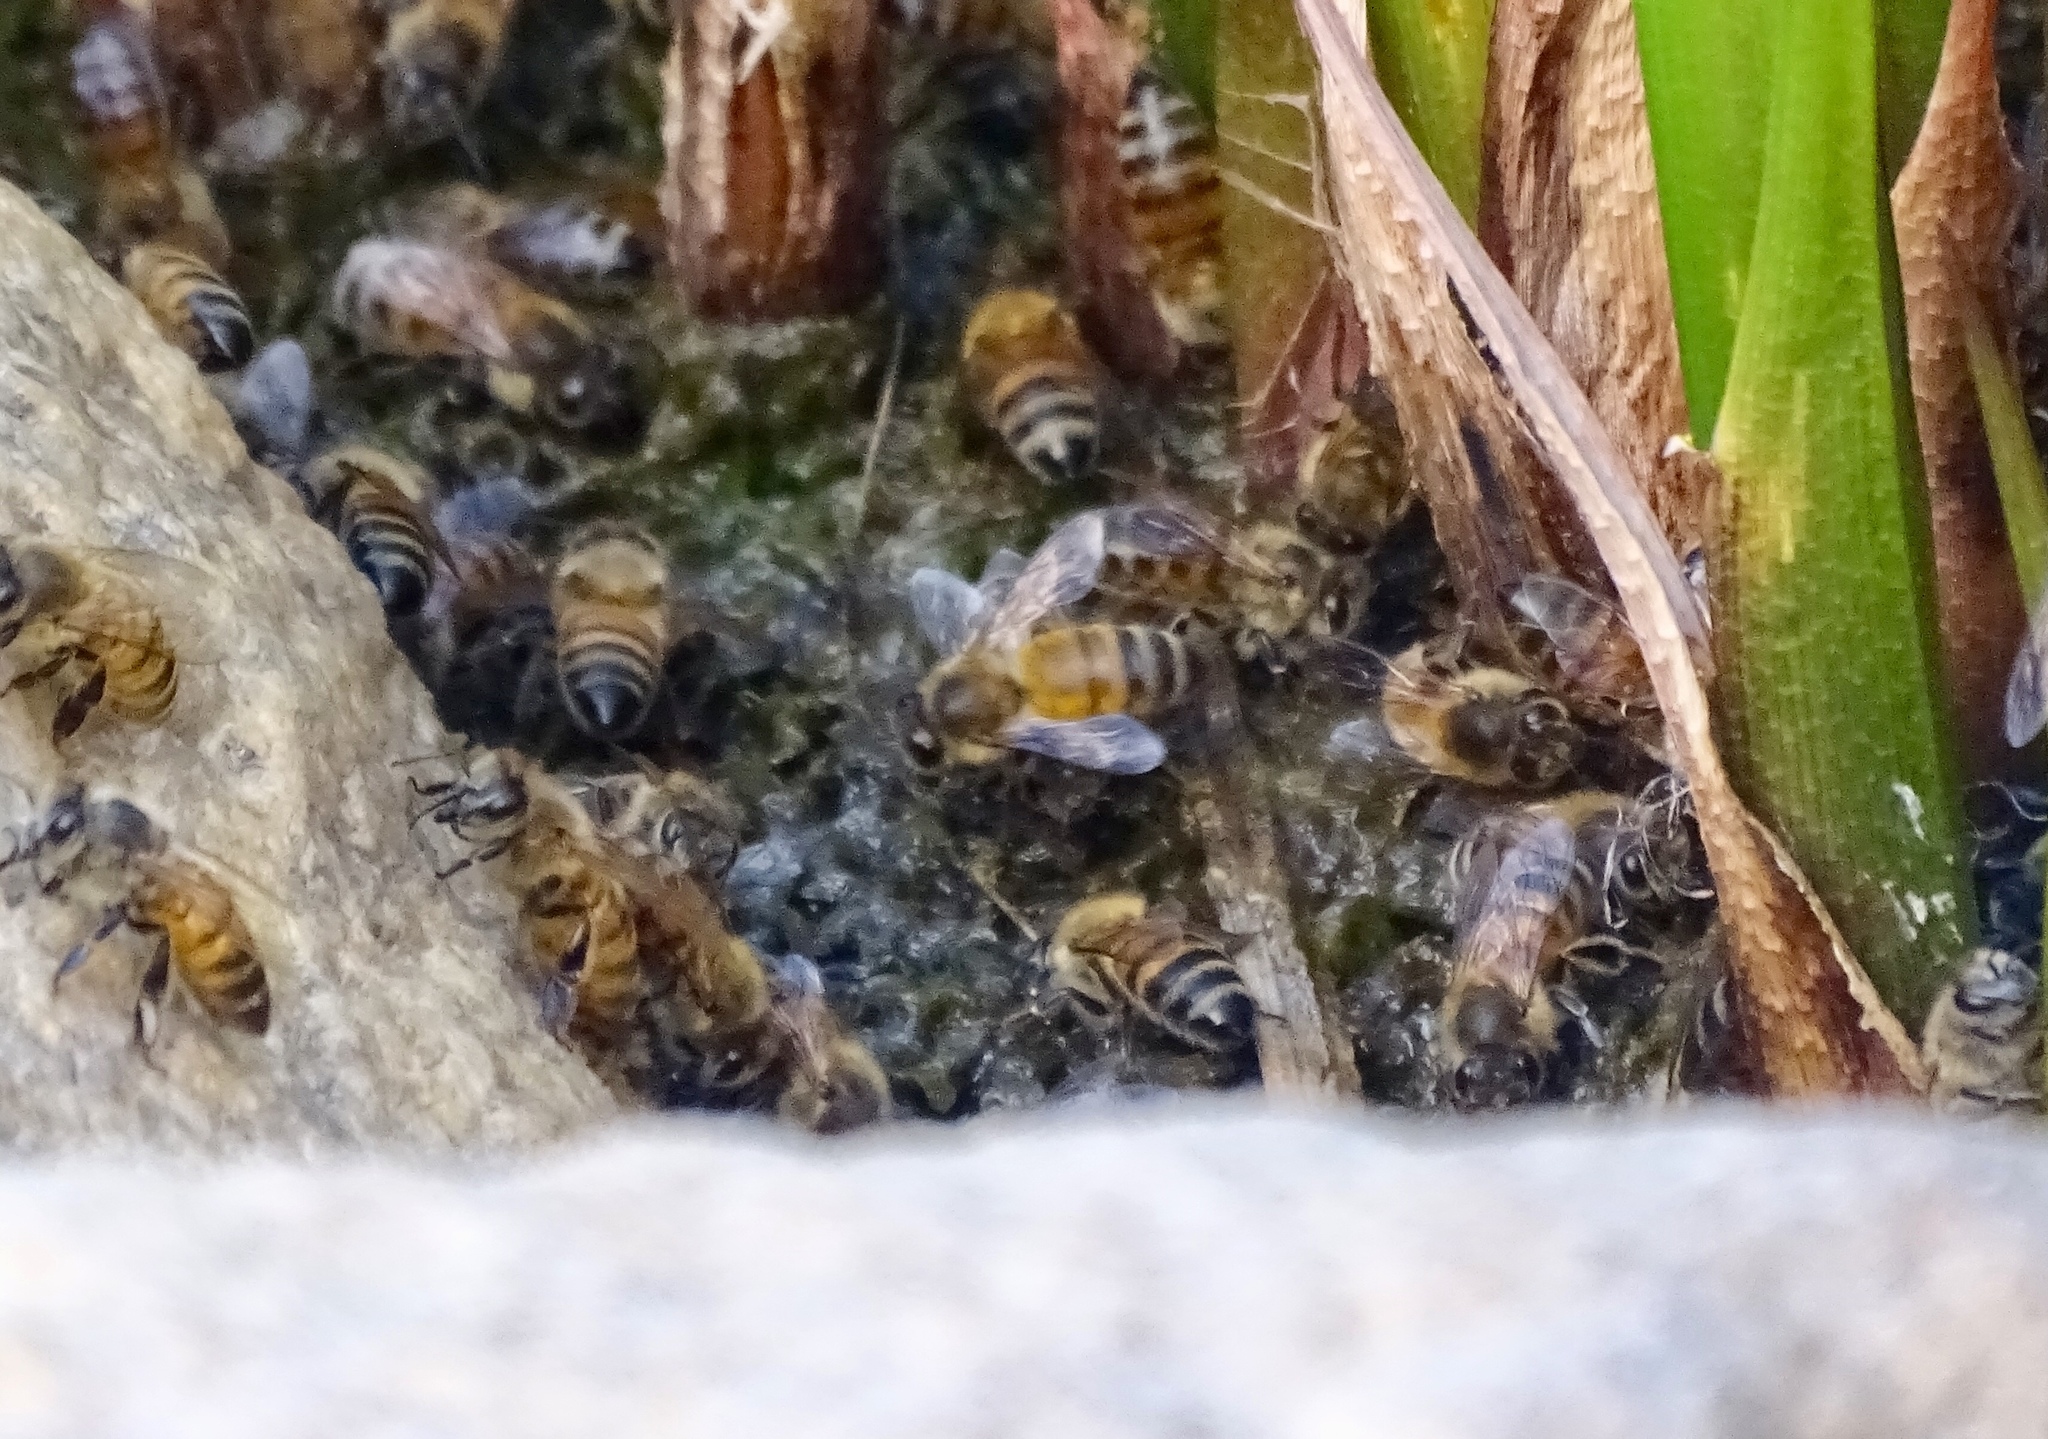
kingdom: Animalia
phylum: Arthropoda
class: Insecta
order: Hymenoptera
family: Apidae
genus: Apis
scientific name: Apis mellifera
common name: Honey bee
